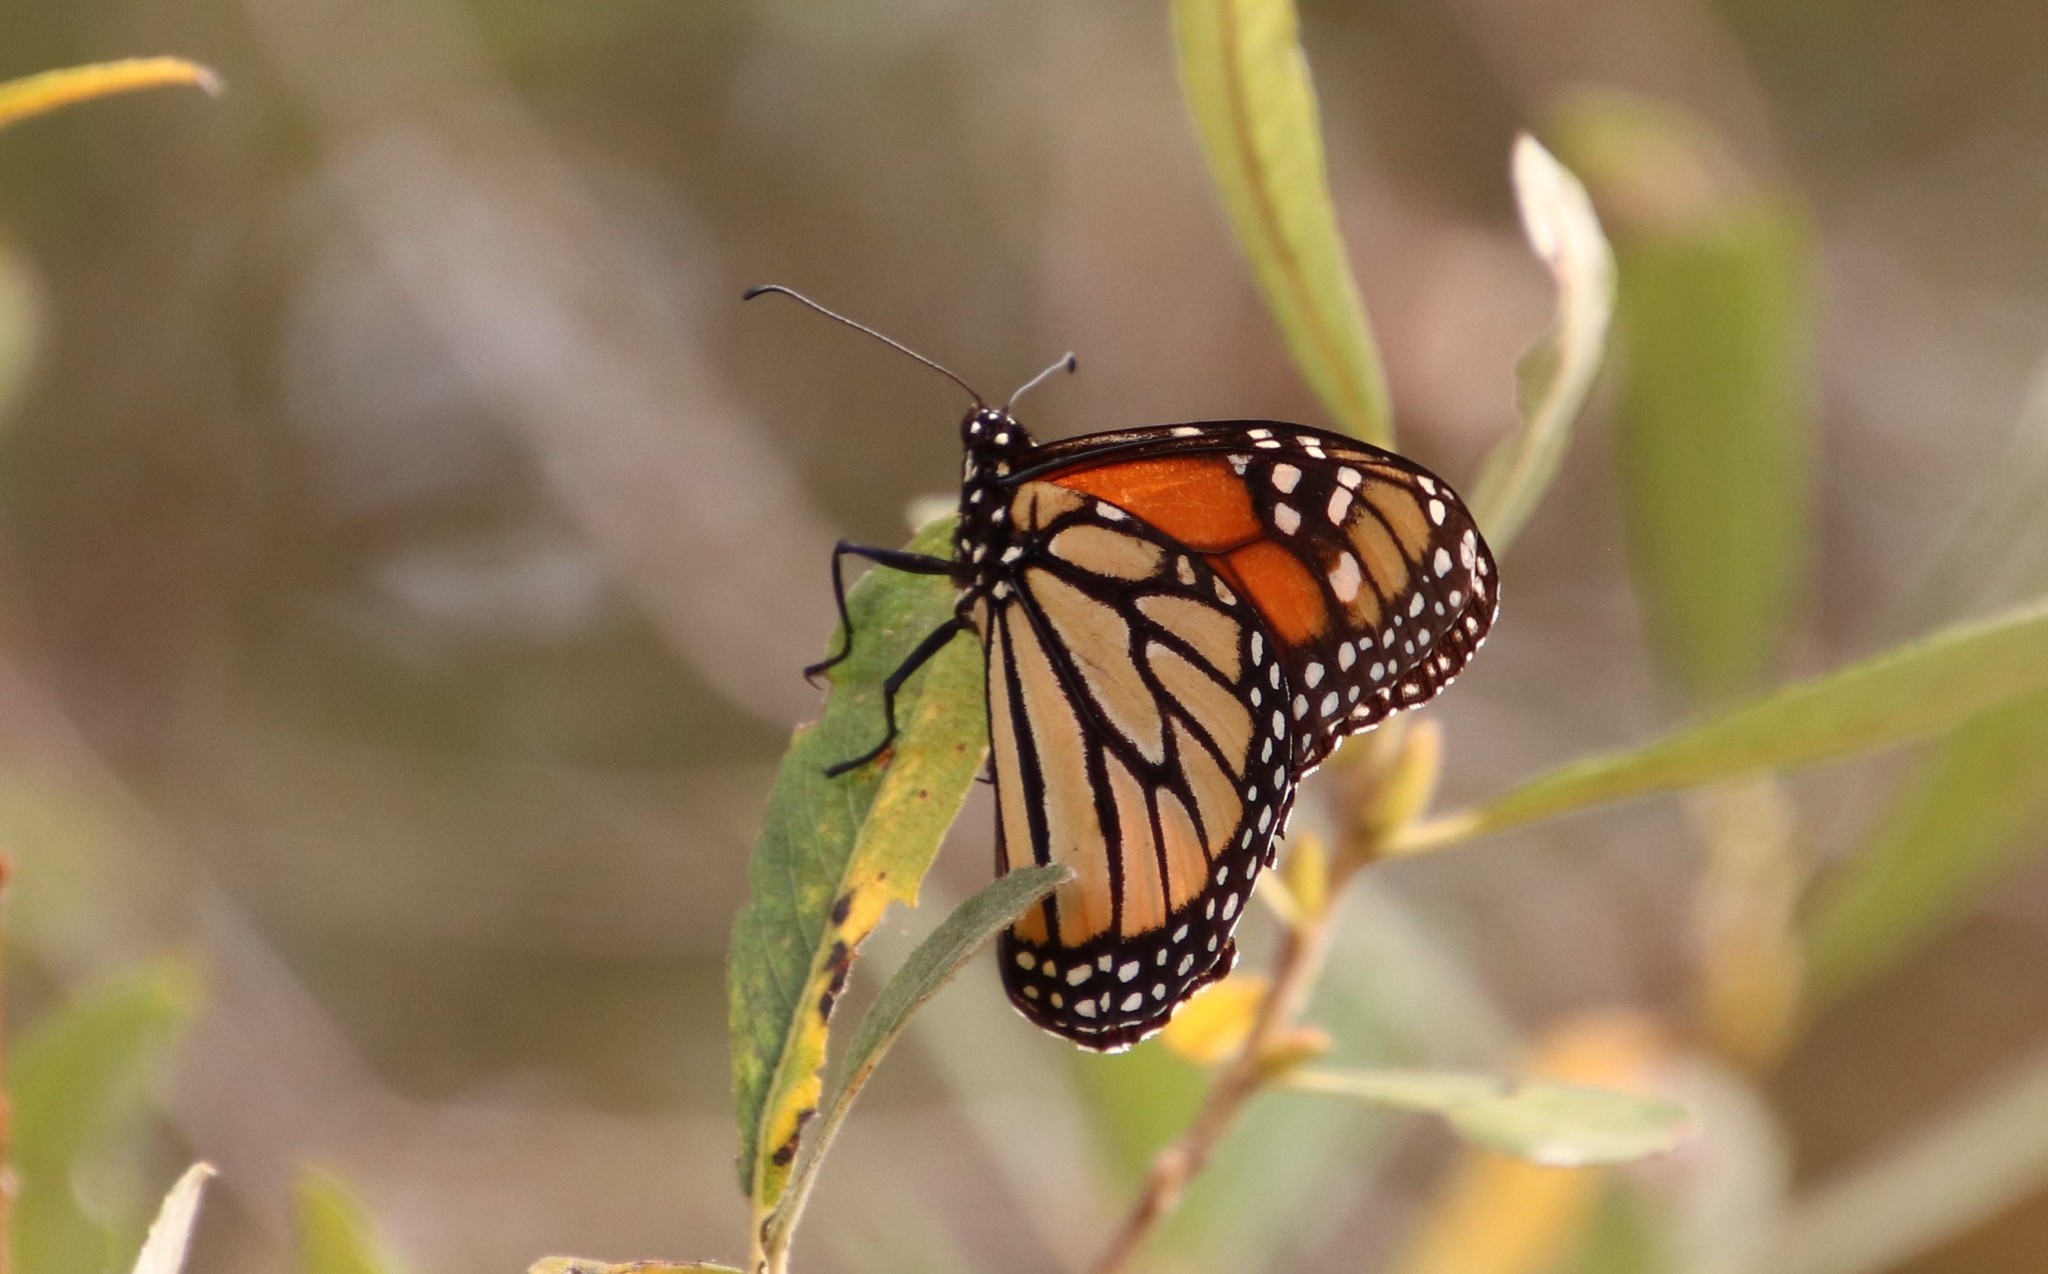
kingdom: Animalia
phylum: Arthropoda
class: Insecta
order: Lepidoptera
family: Nymphalidae
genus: Danaus
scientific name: Danaus plexippus
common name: Monarch
